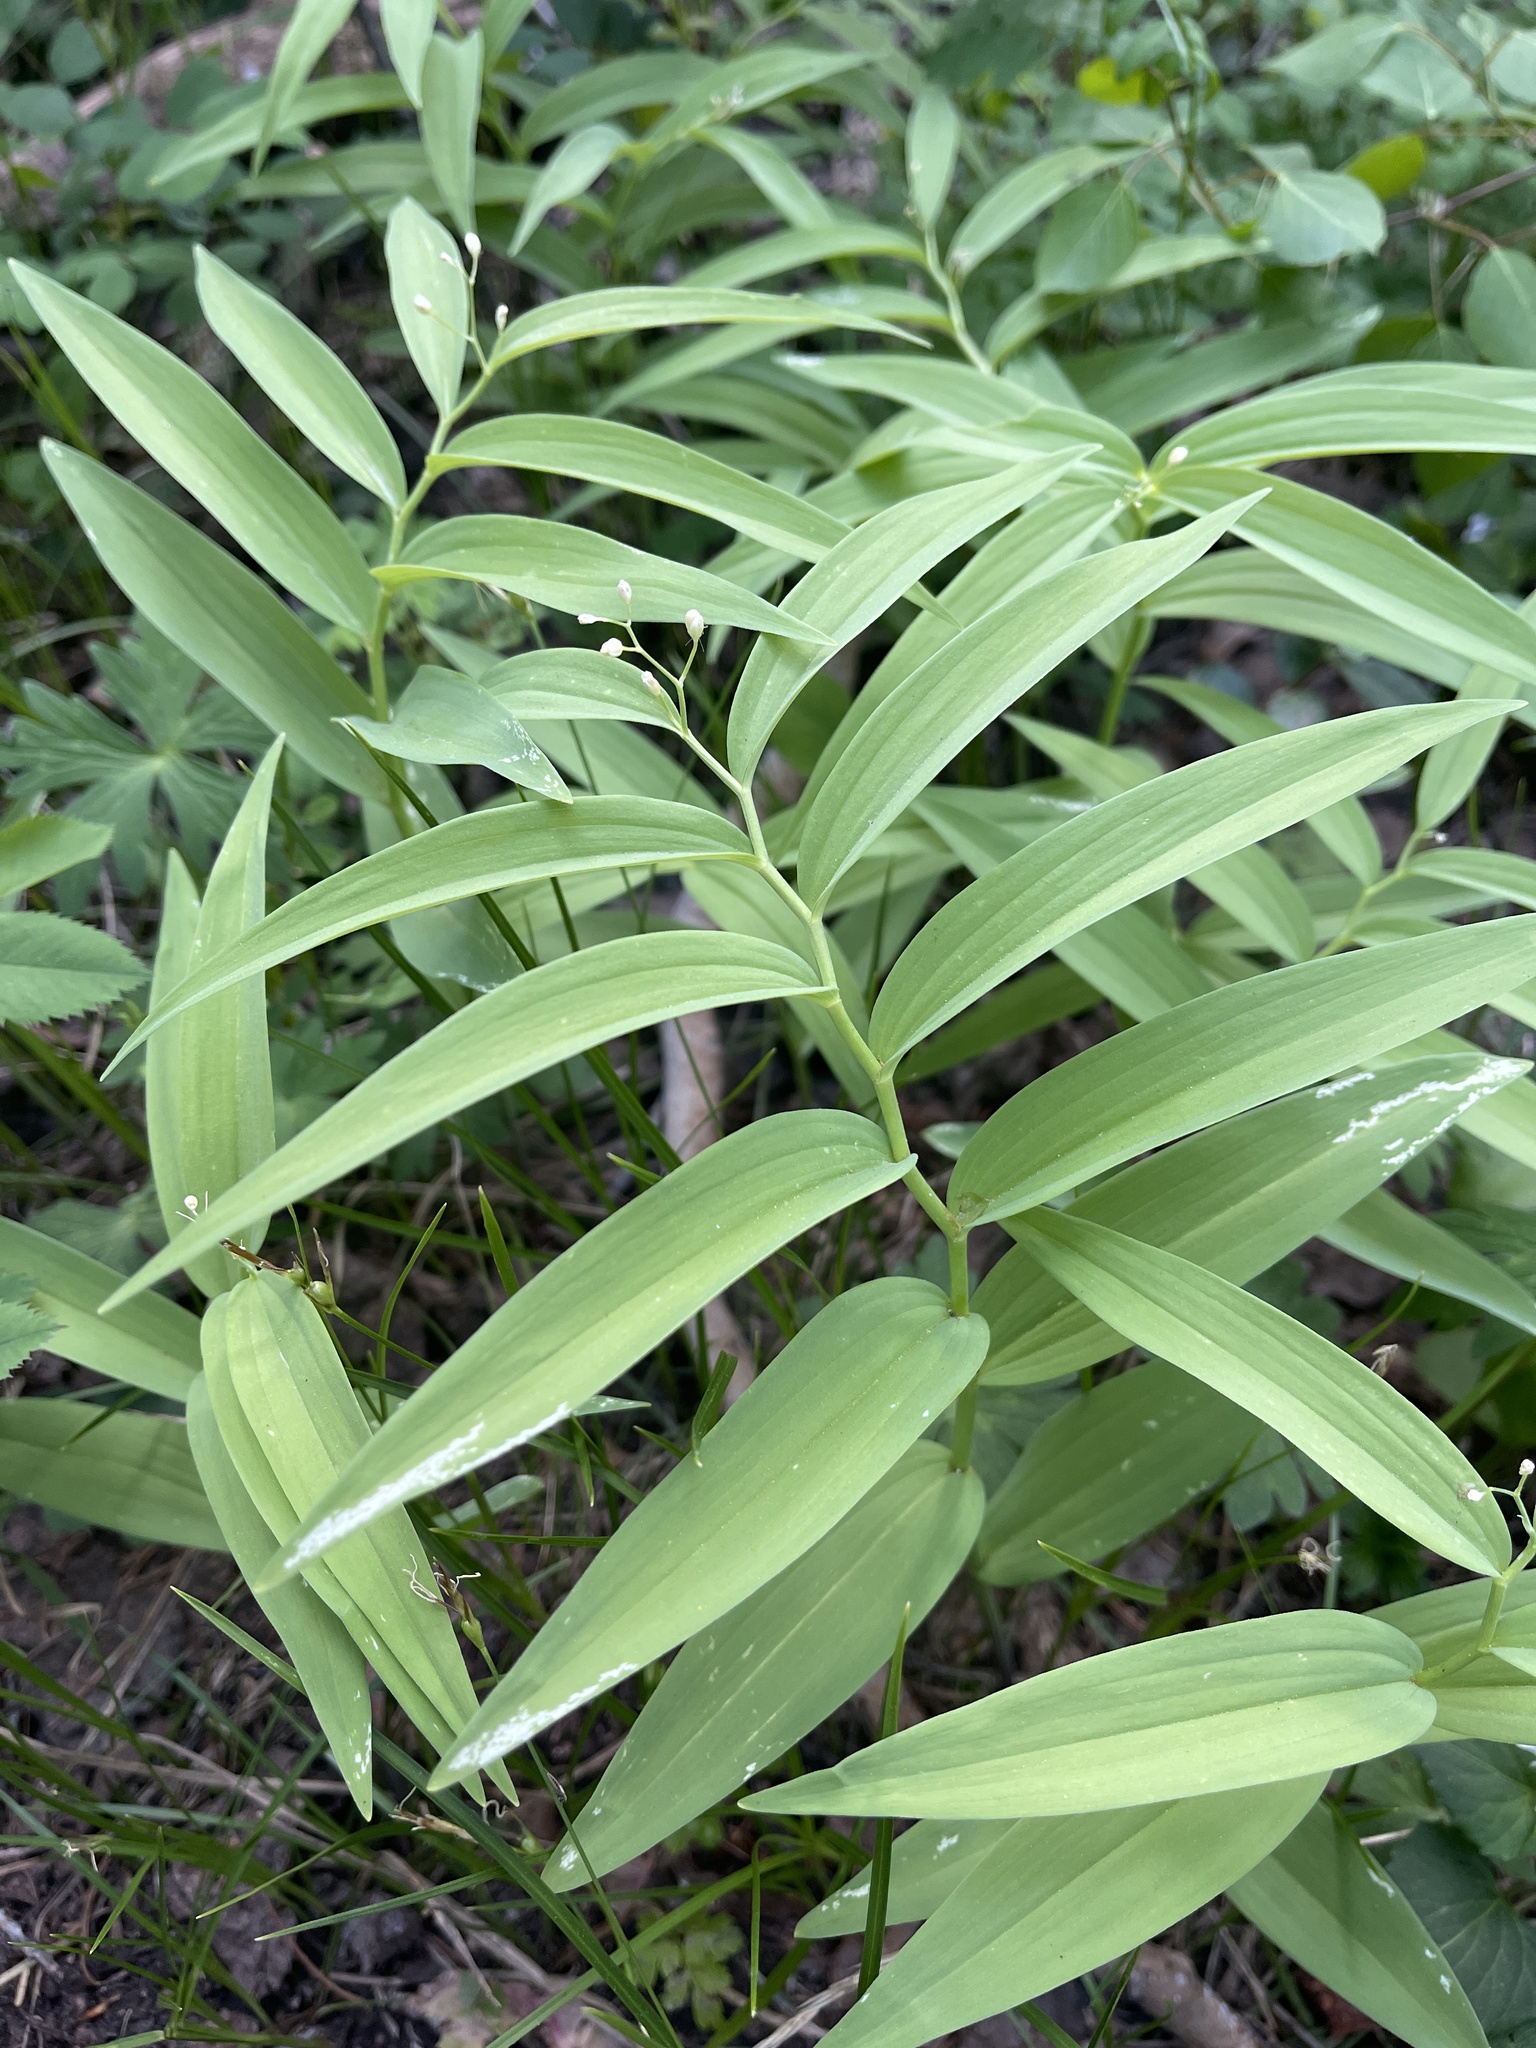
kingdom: Plantae
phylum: Tracheophyta
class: Liliopsida
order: Asparagales
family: Asparagaceae
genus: Maianthemum
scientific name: Maianthemum stellatum
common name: Little false solomon's seal
